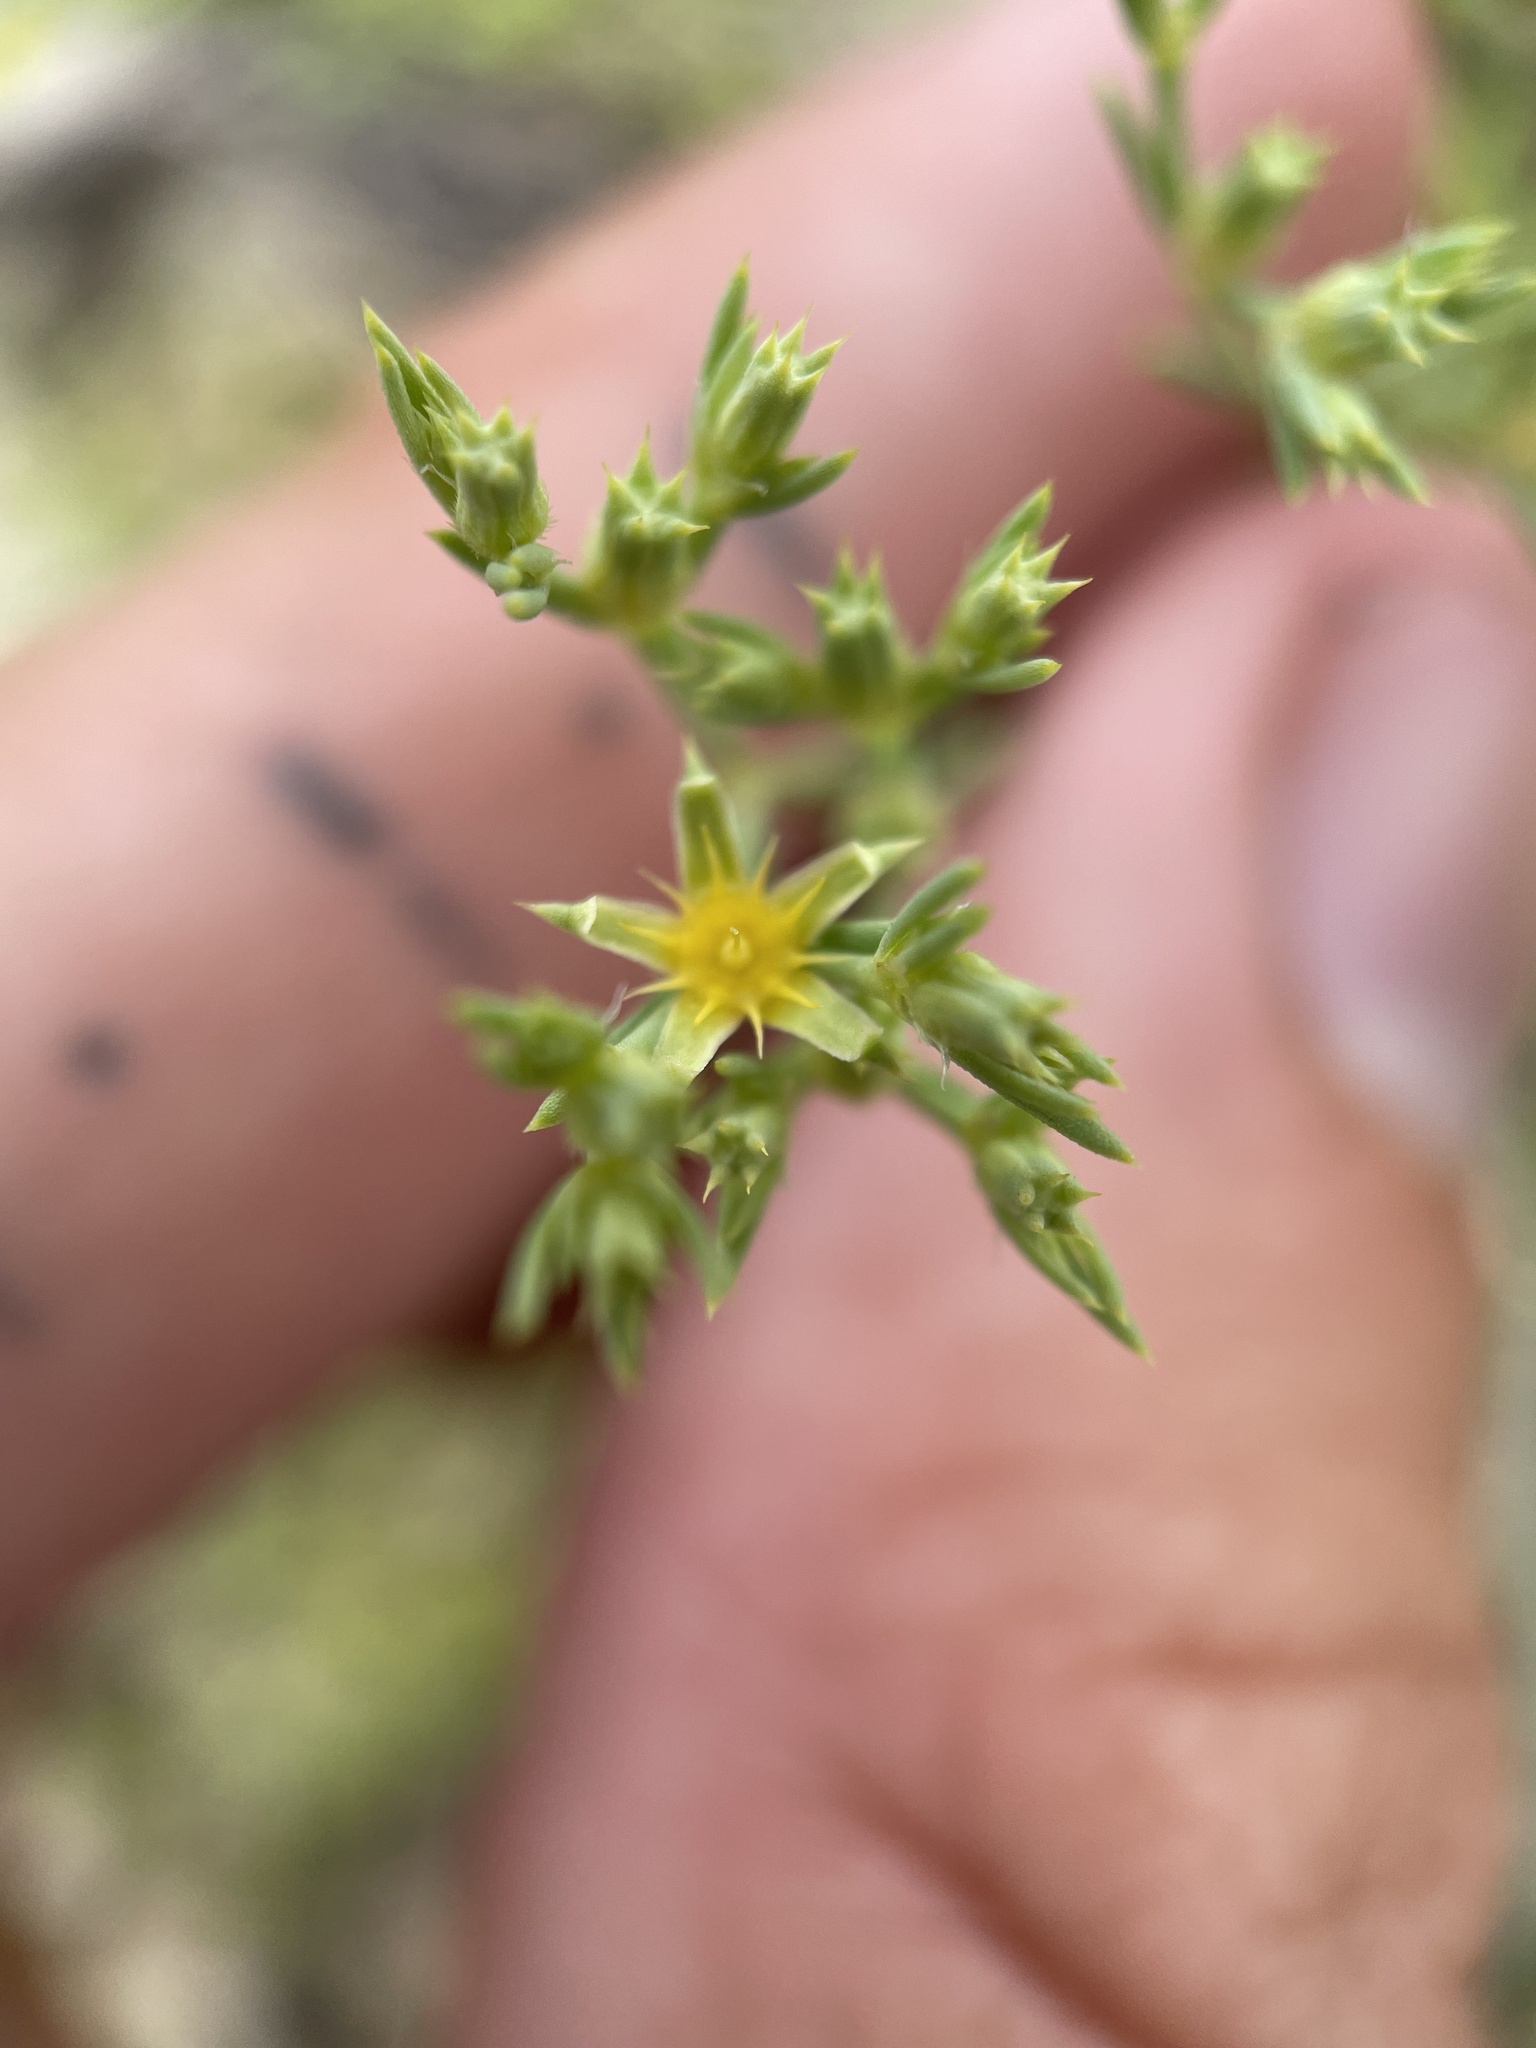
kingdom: Plantae
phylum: Tracheophyta
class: Magnoliopsida
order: Caryophyllales
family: Caryophyllaceae
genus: Paronychia
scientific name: Paronychia jamesii
